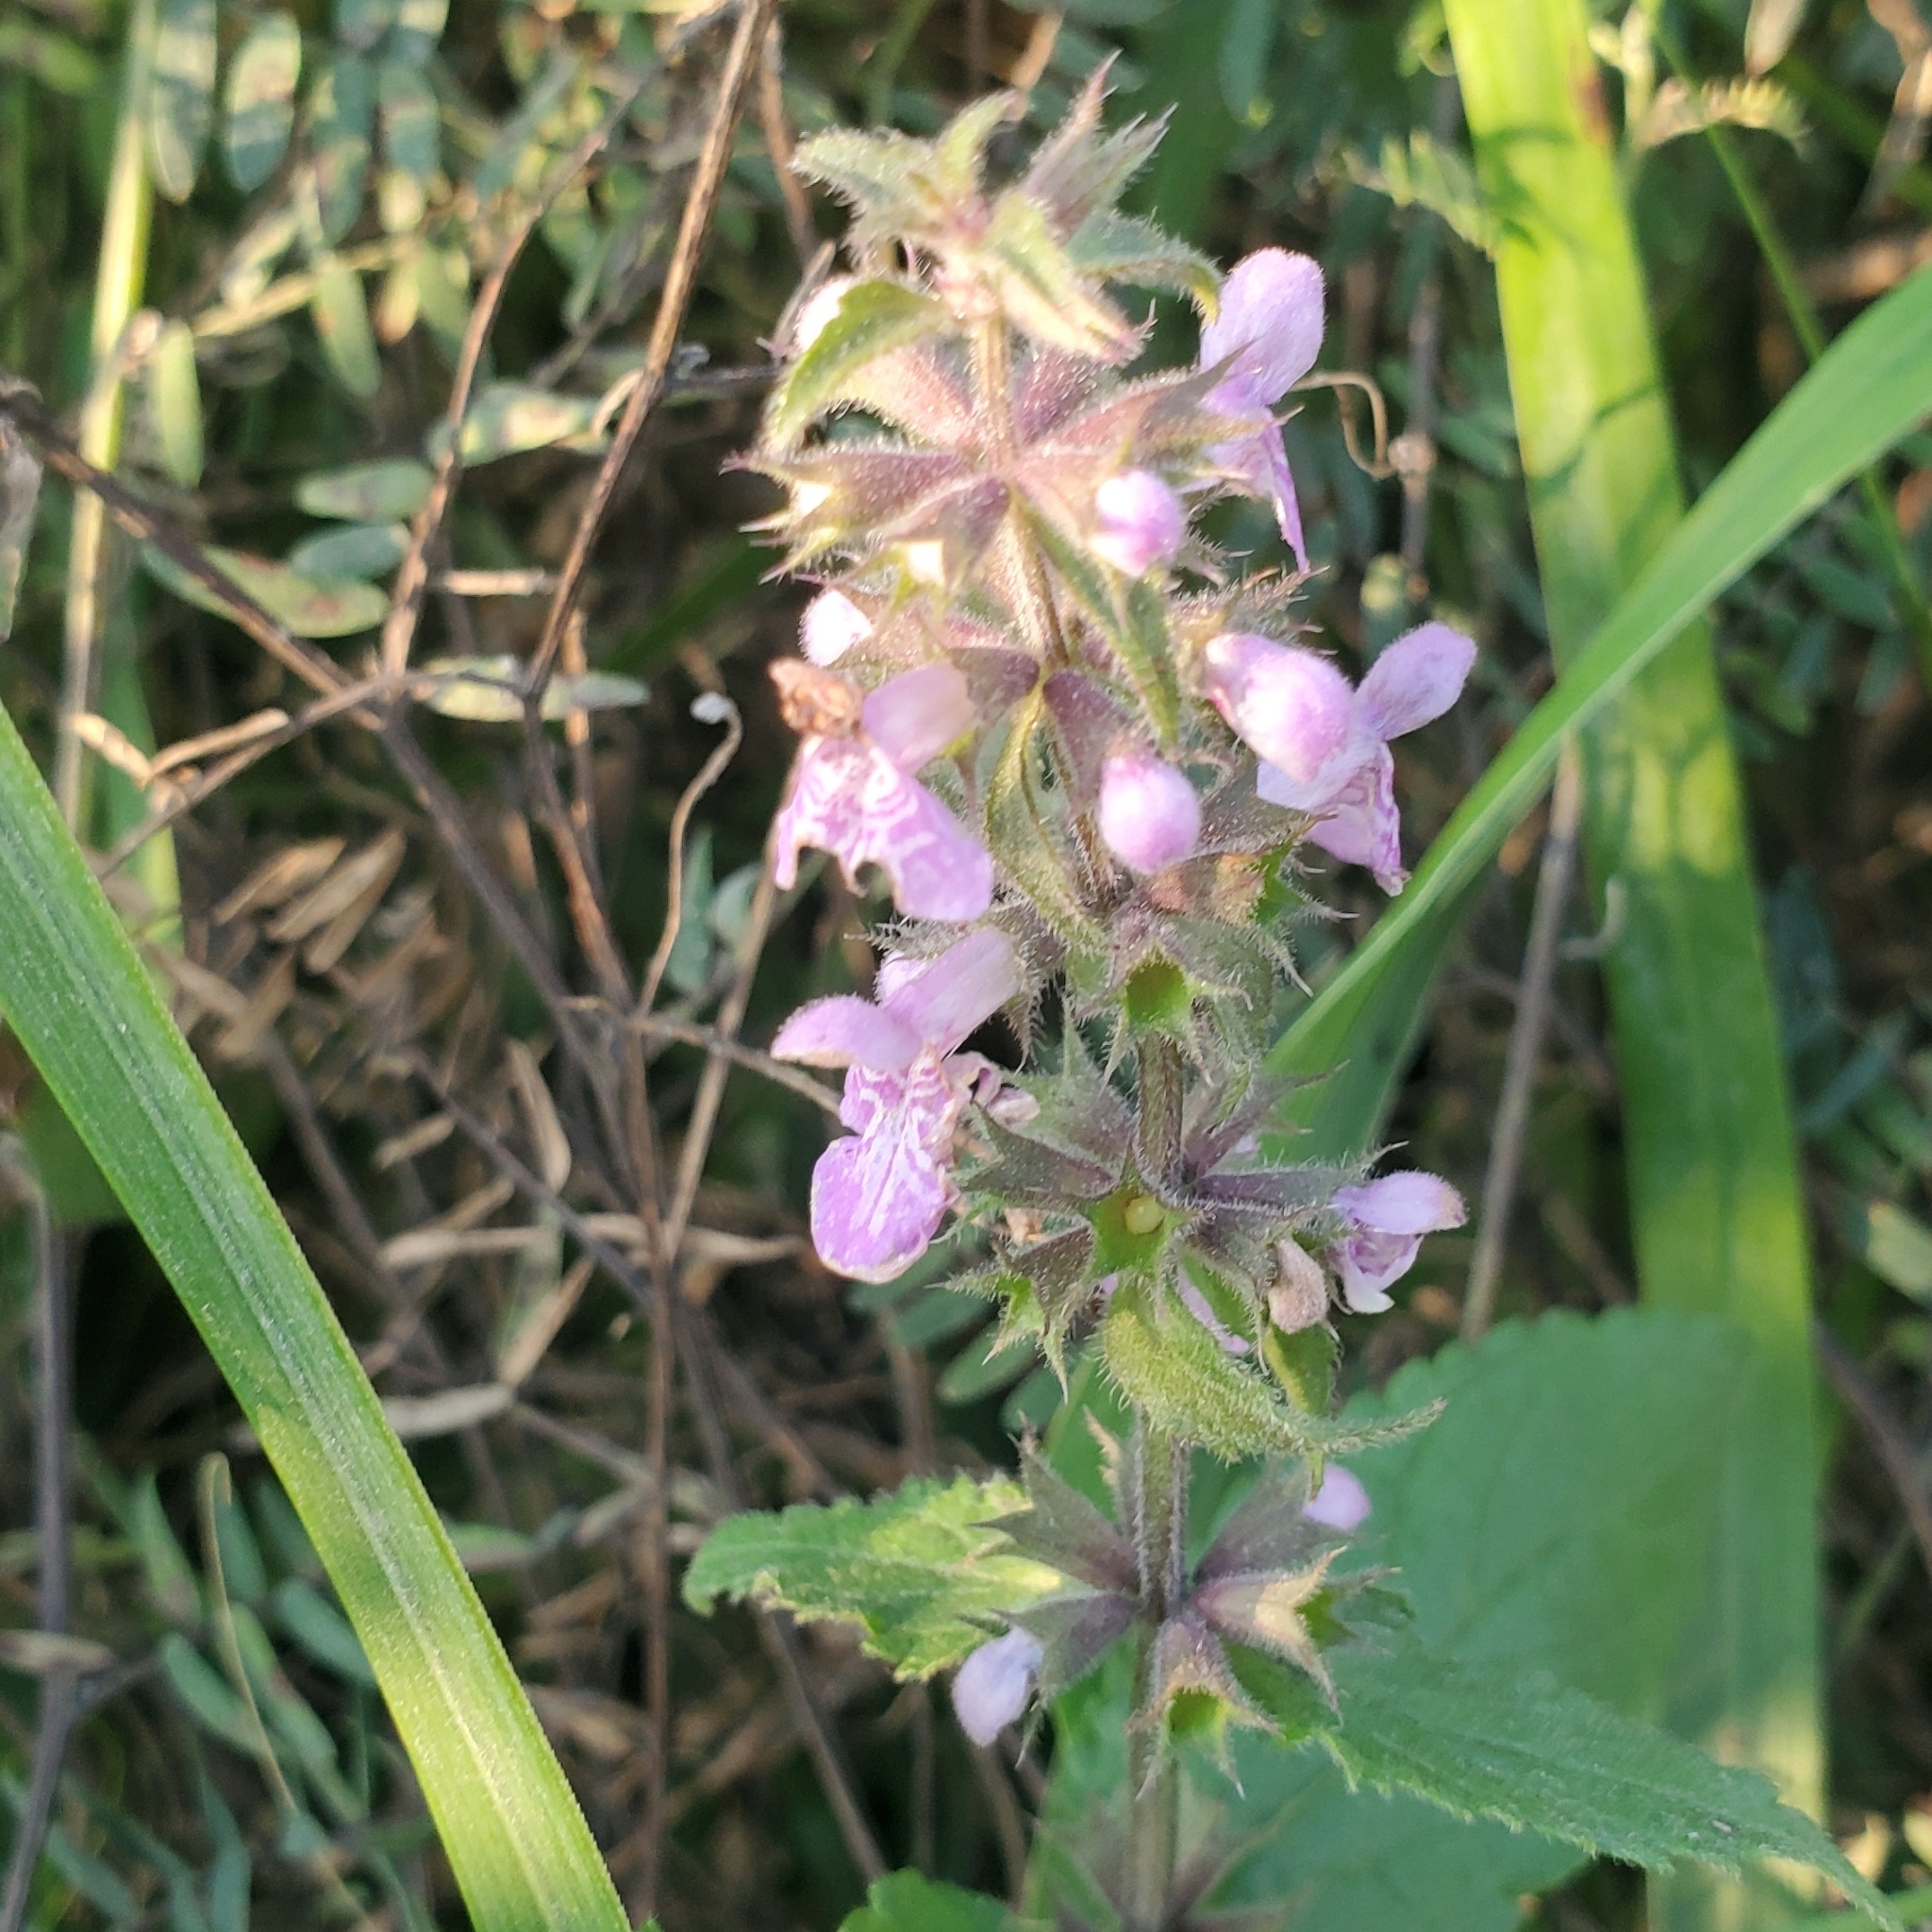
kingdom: Plantae
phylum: Tracheophyta
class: Magnoliopsida
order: Lamiales
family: Lamiaceae
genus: Stachys
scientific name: Stachys palustris
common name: Marsh woundwort
